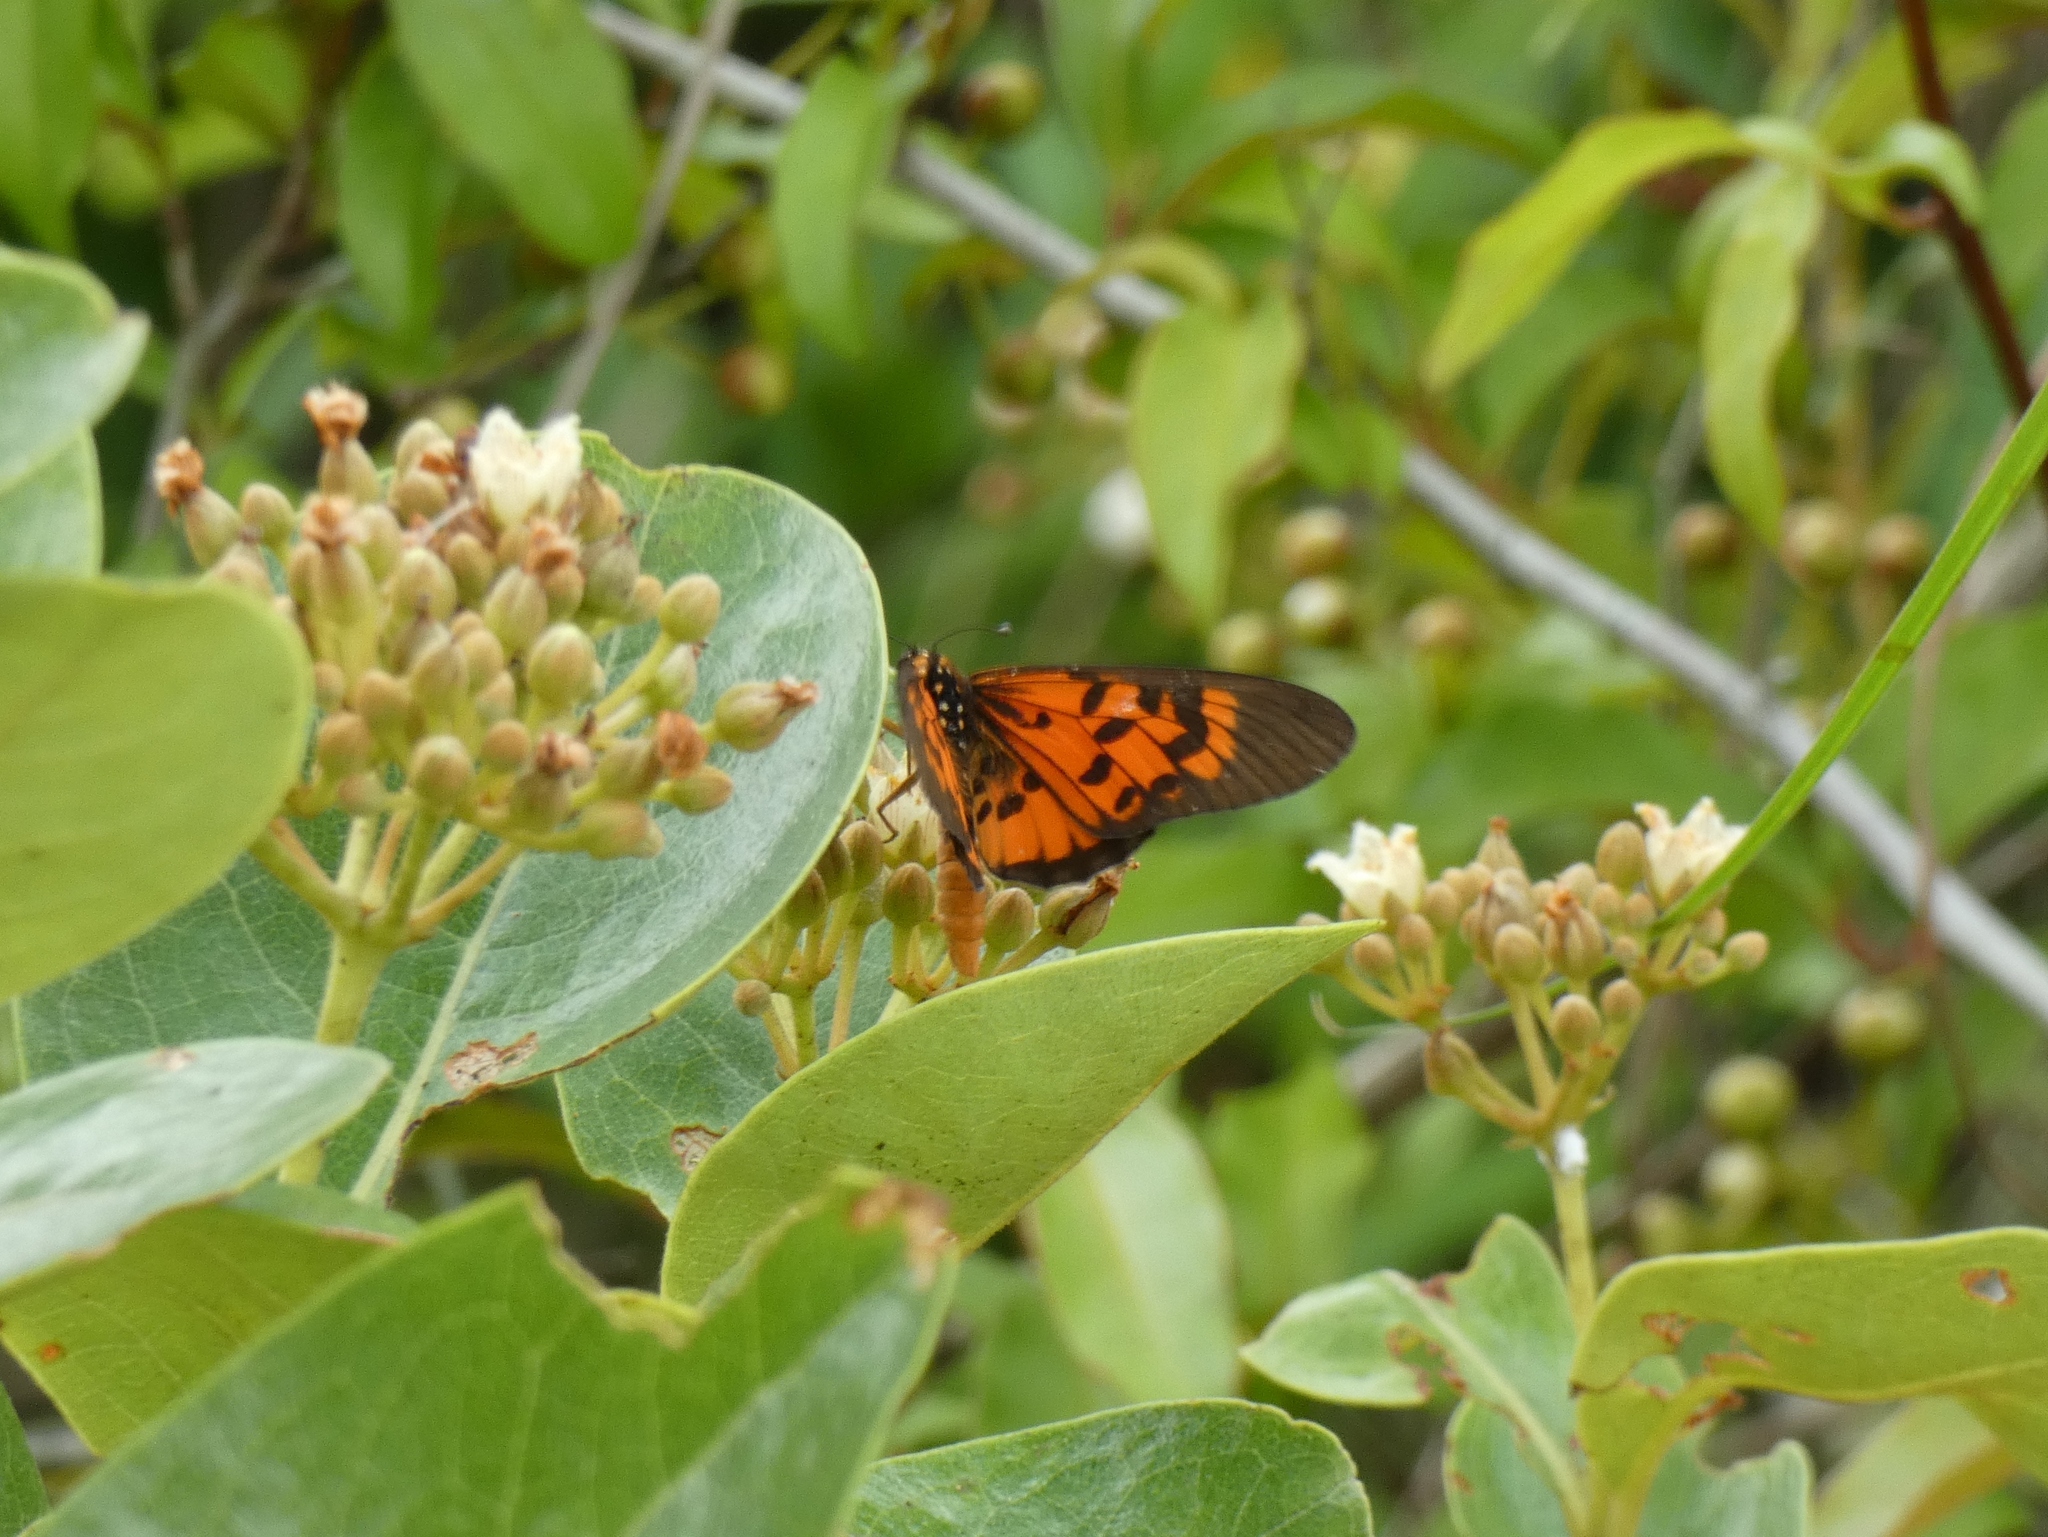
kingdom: Animalia
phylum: Arthropoda
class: Insecta
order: Lepidoptera
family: Nymphalidae
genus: Rubraea
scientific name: Rubraea
